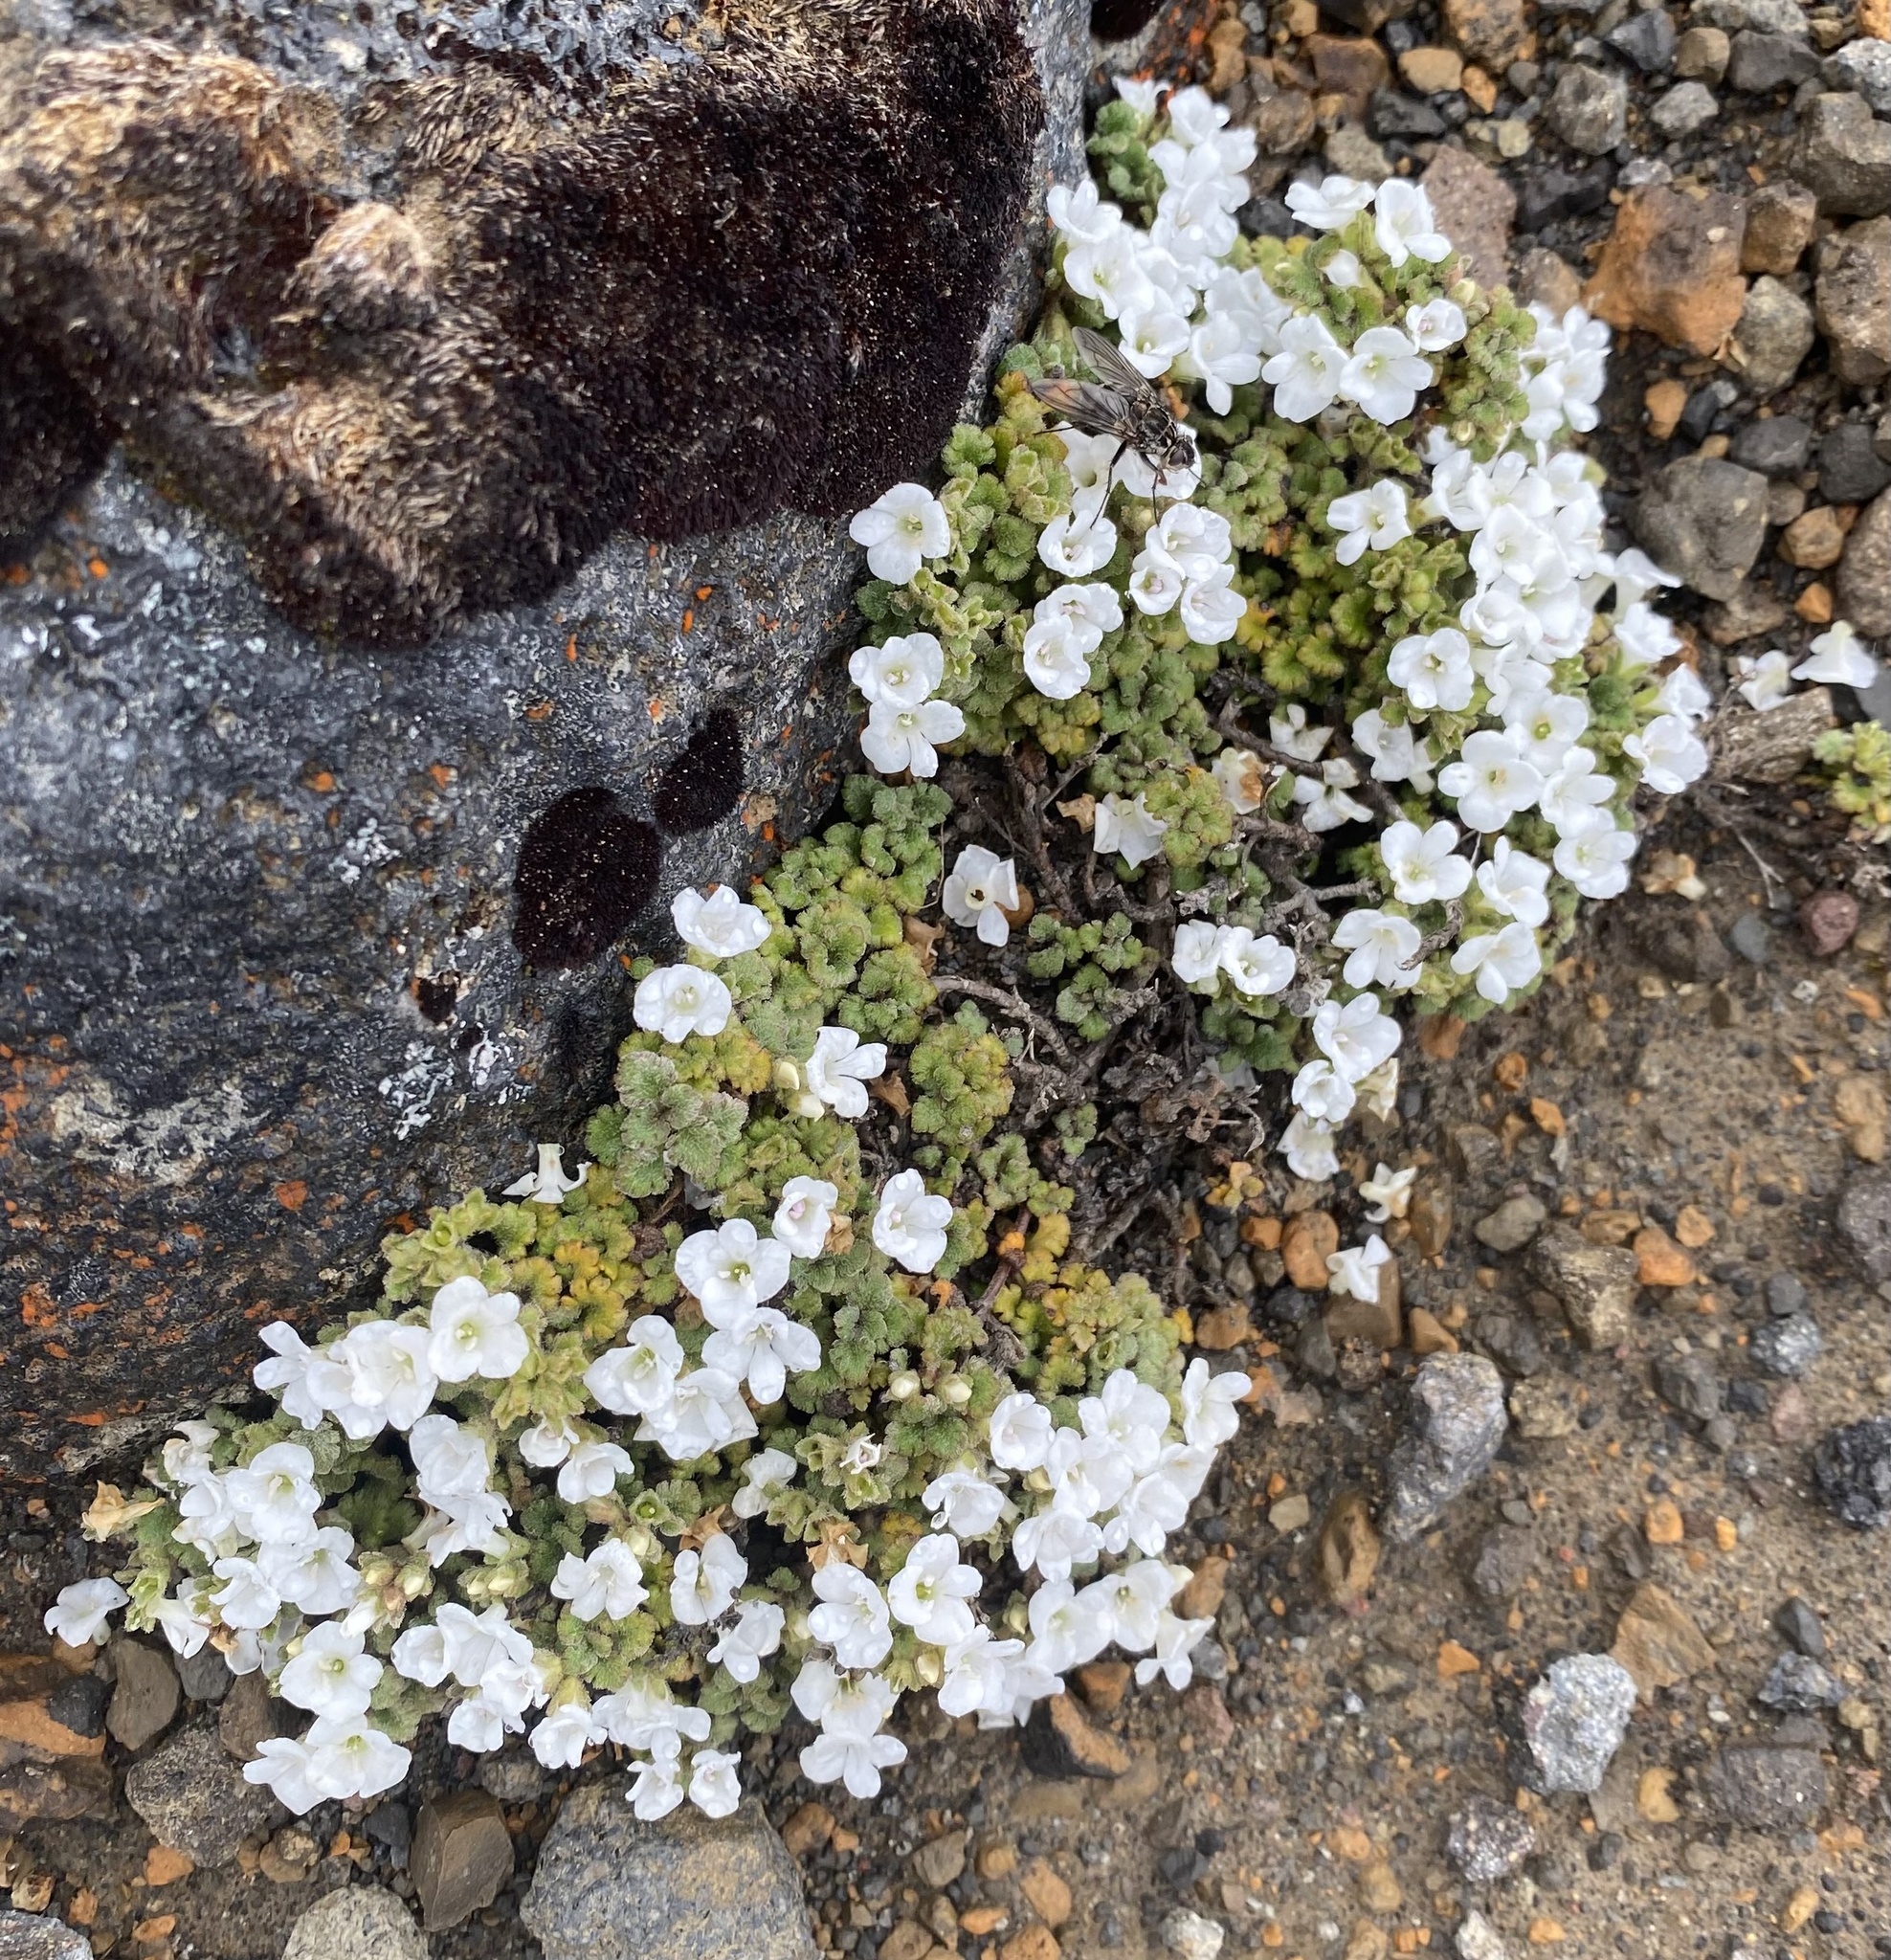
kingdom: Plantae
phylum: Tracheophyta
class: Magnoliopsida
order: Lamiales
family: Plantaginaceae
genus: Veronica
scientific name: Veronica spathulata
